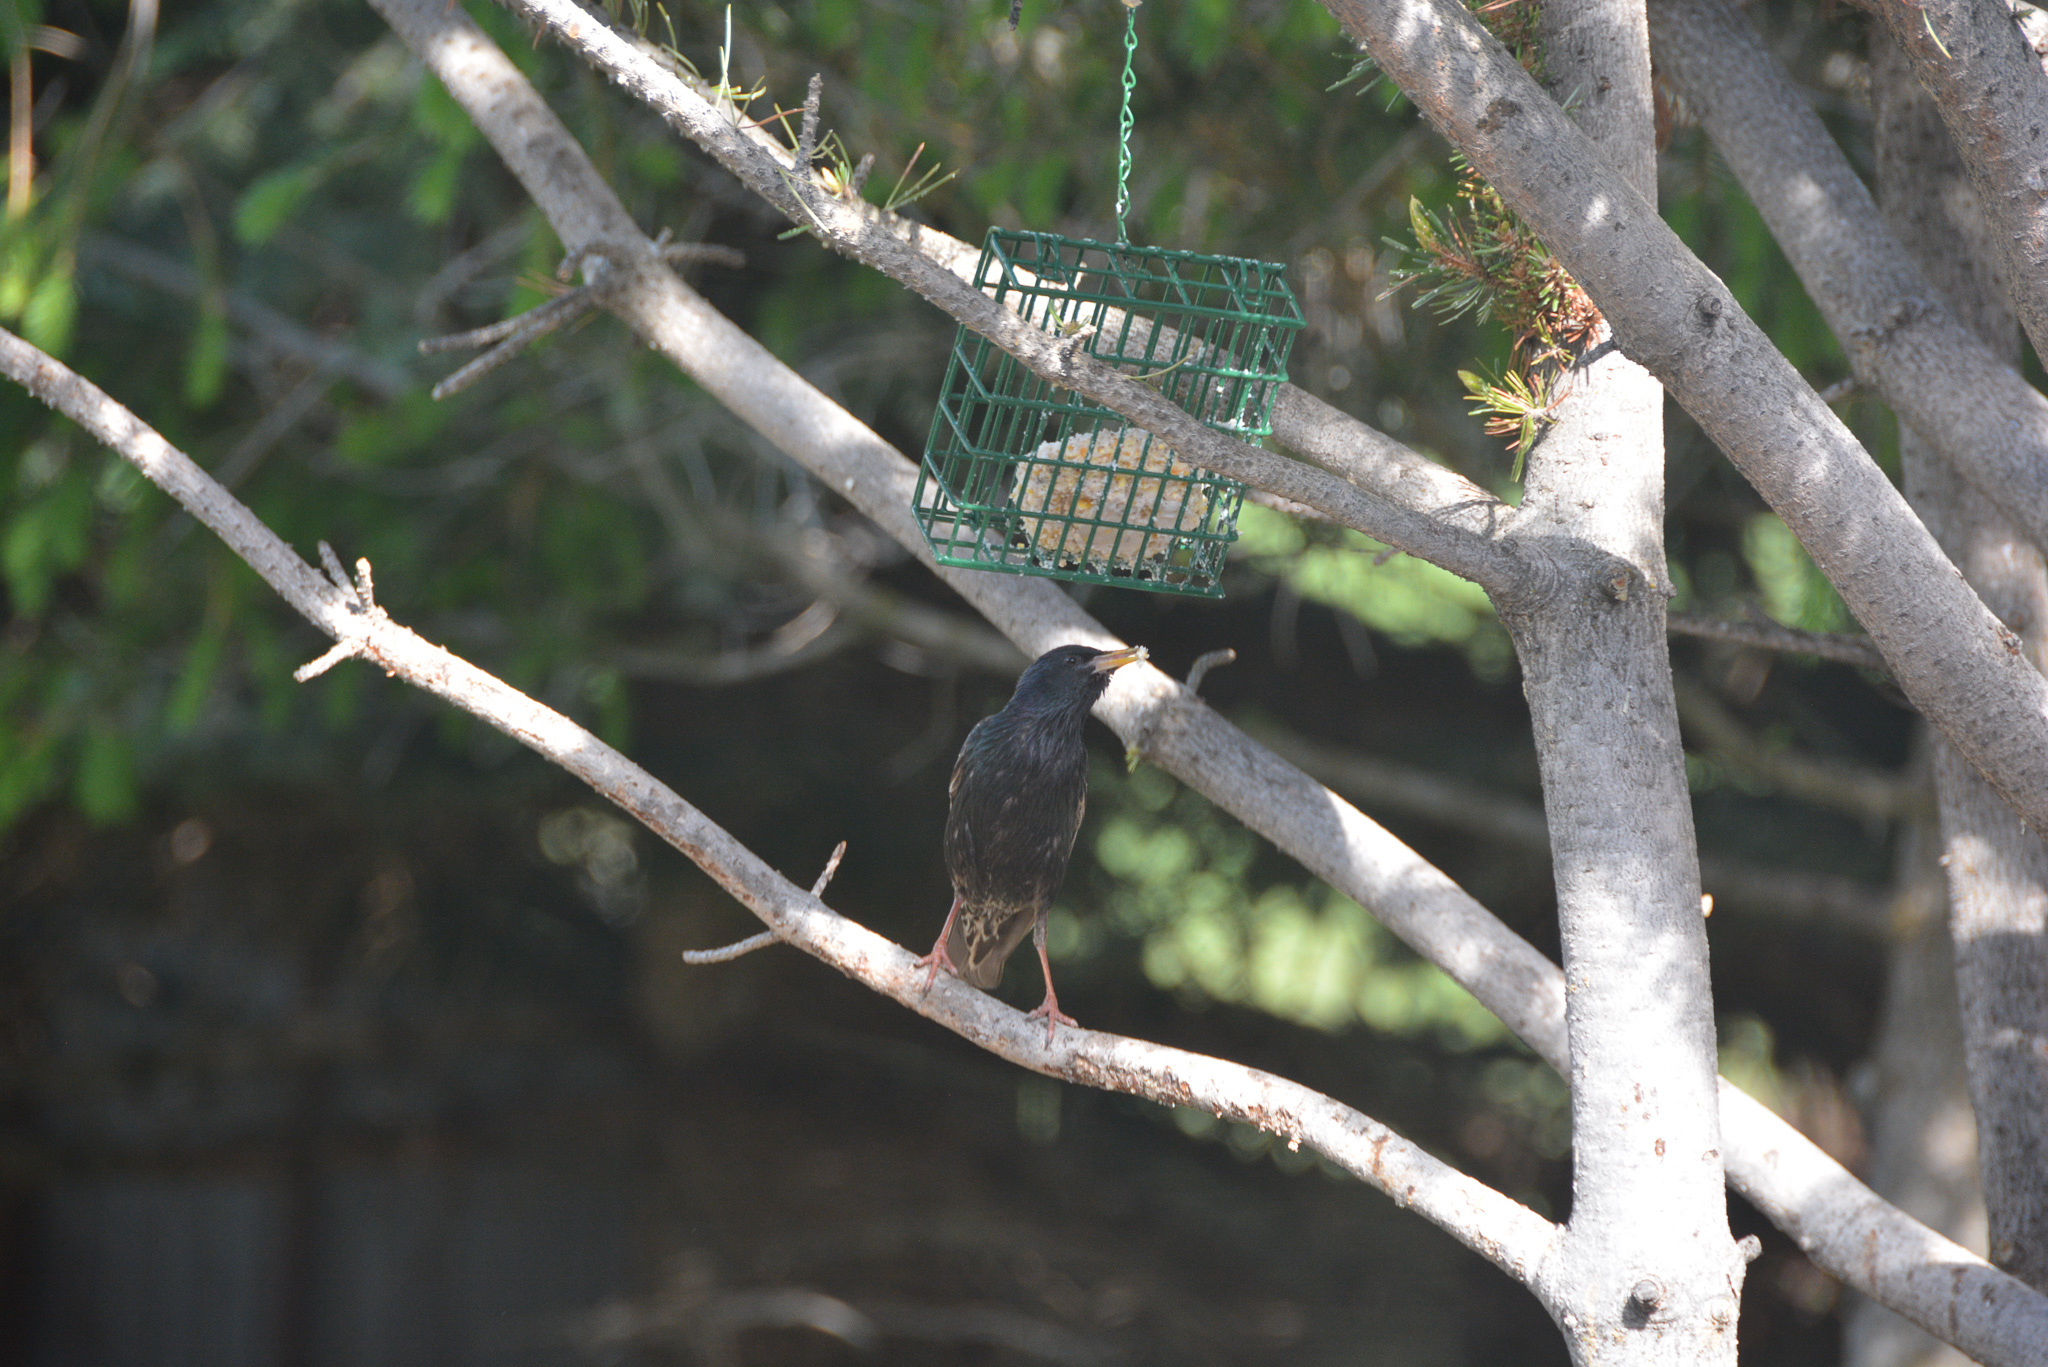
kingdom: Animalia
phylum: Chordata
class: Aves
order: Passeriformes
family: Sturnidae
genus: Sturnus
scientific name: Sturnus vulgaris
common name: Common starling
